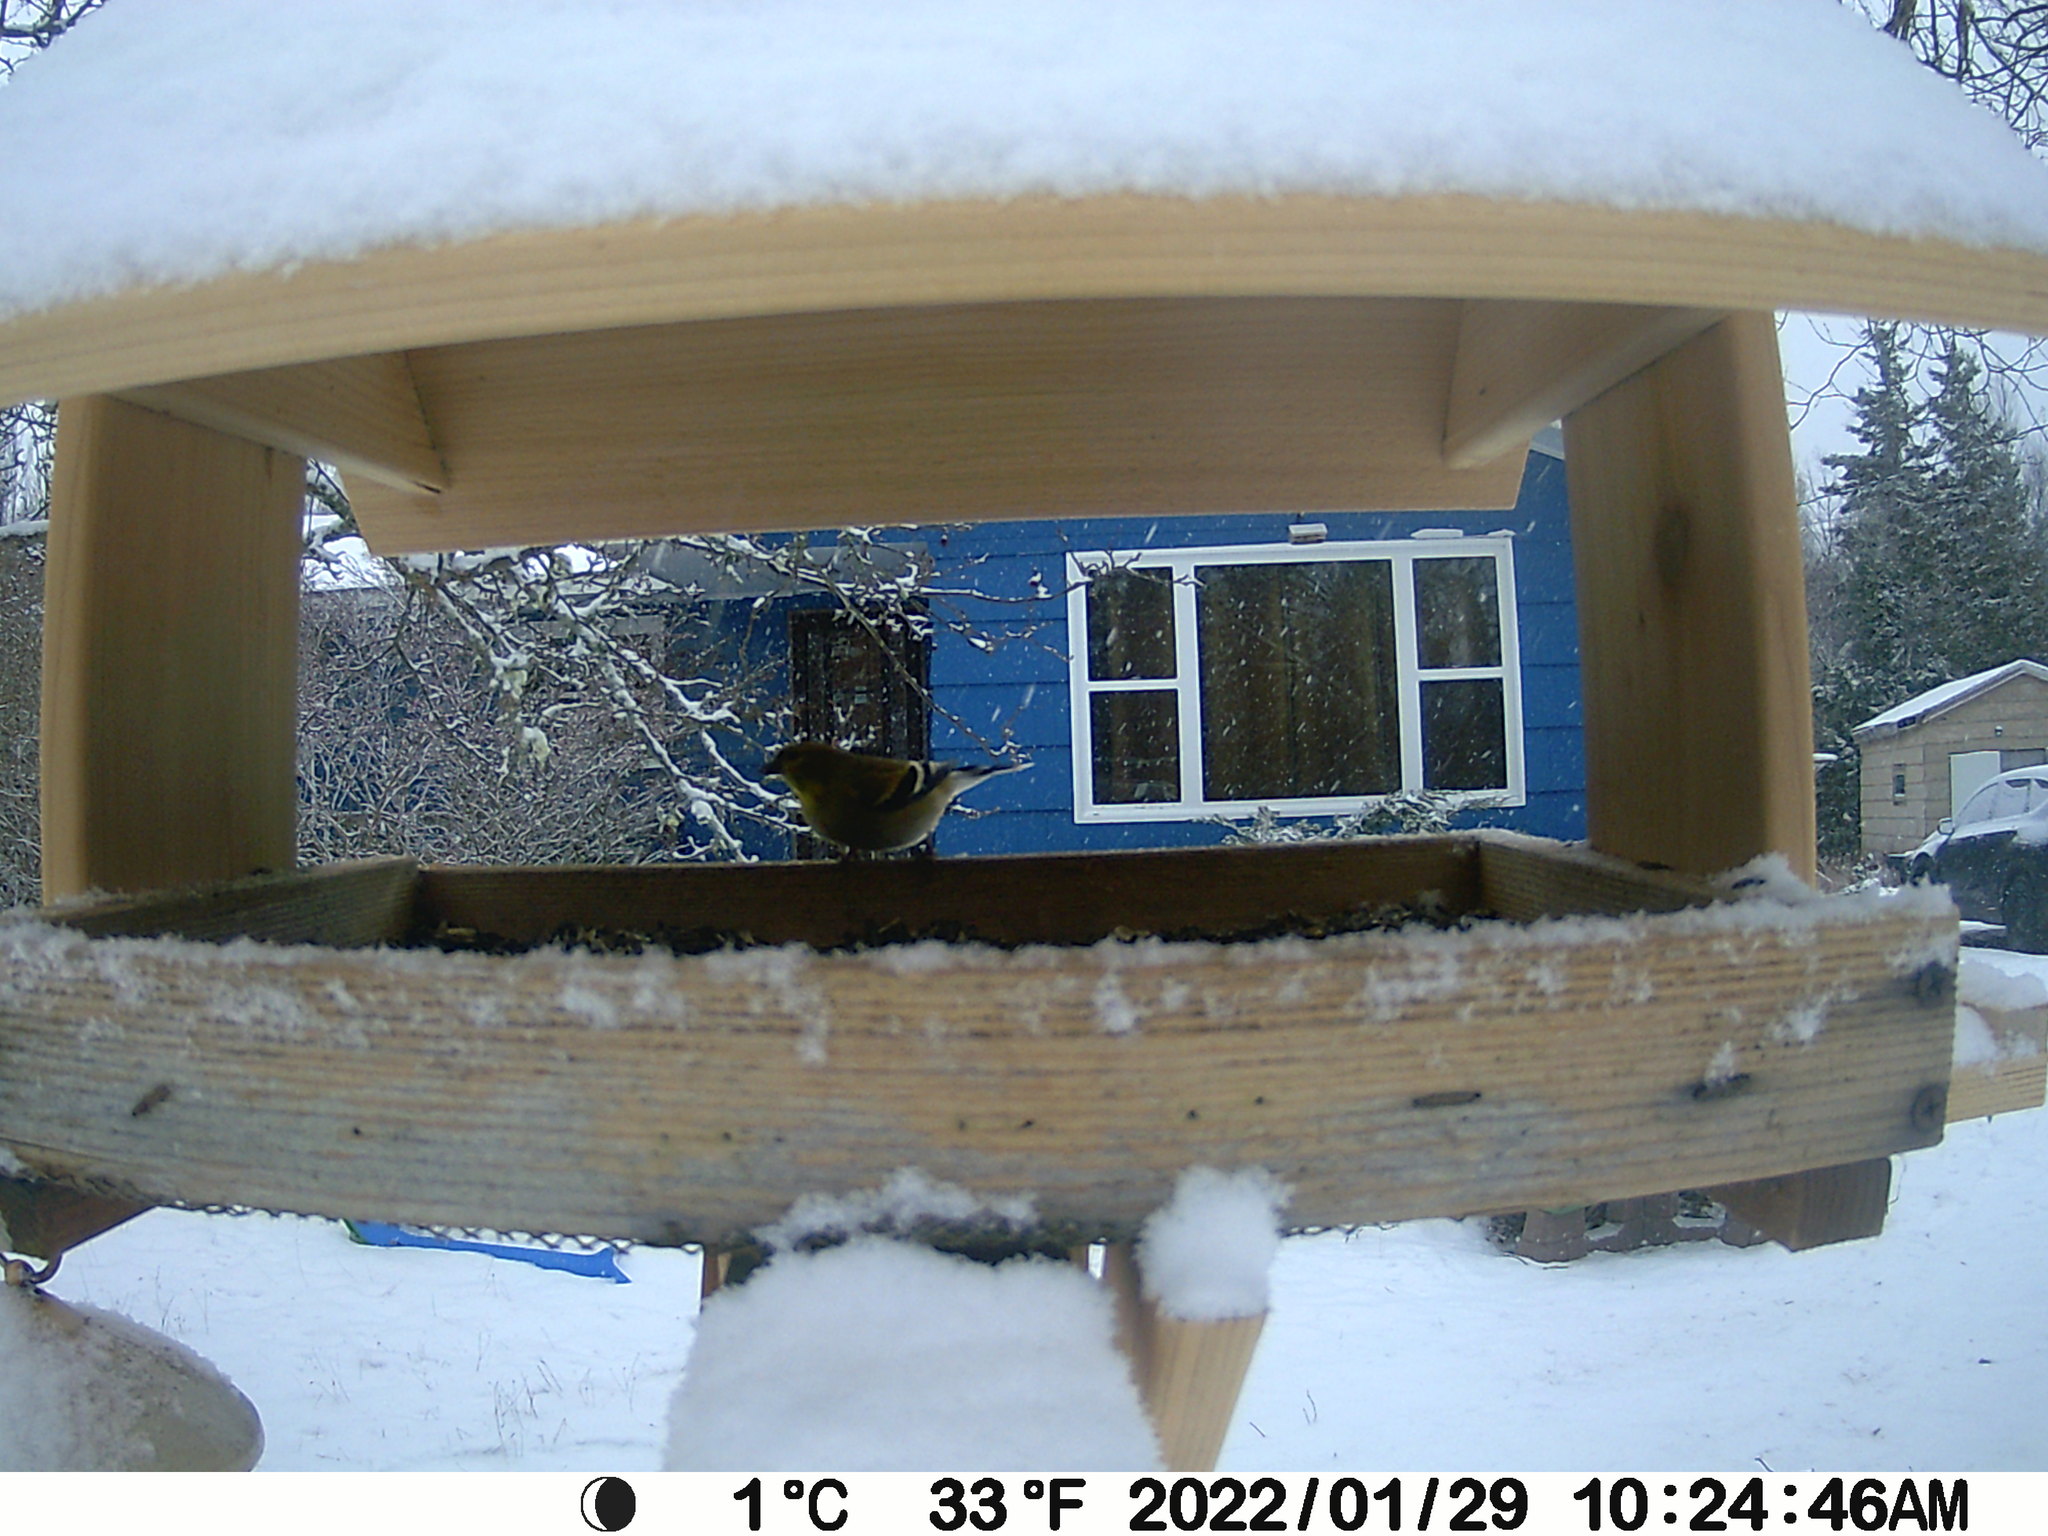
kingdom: Animalia
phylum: Chordata
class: Aves
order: Passeriformes
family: Fringillidae
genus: Spinus
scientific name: Spinus tristis
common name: American goldfinch
